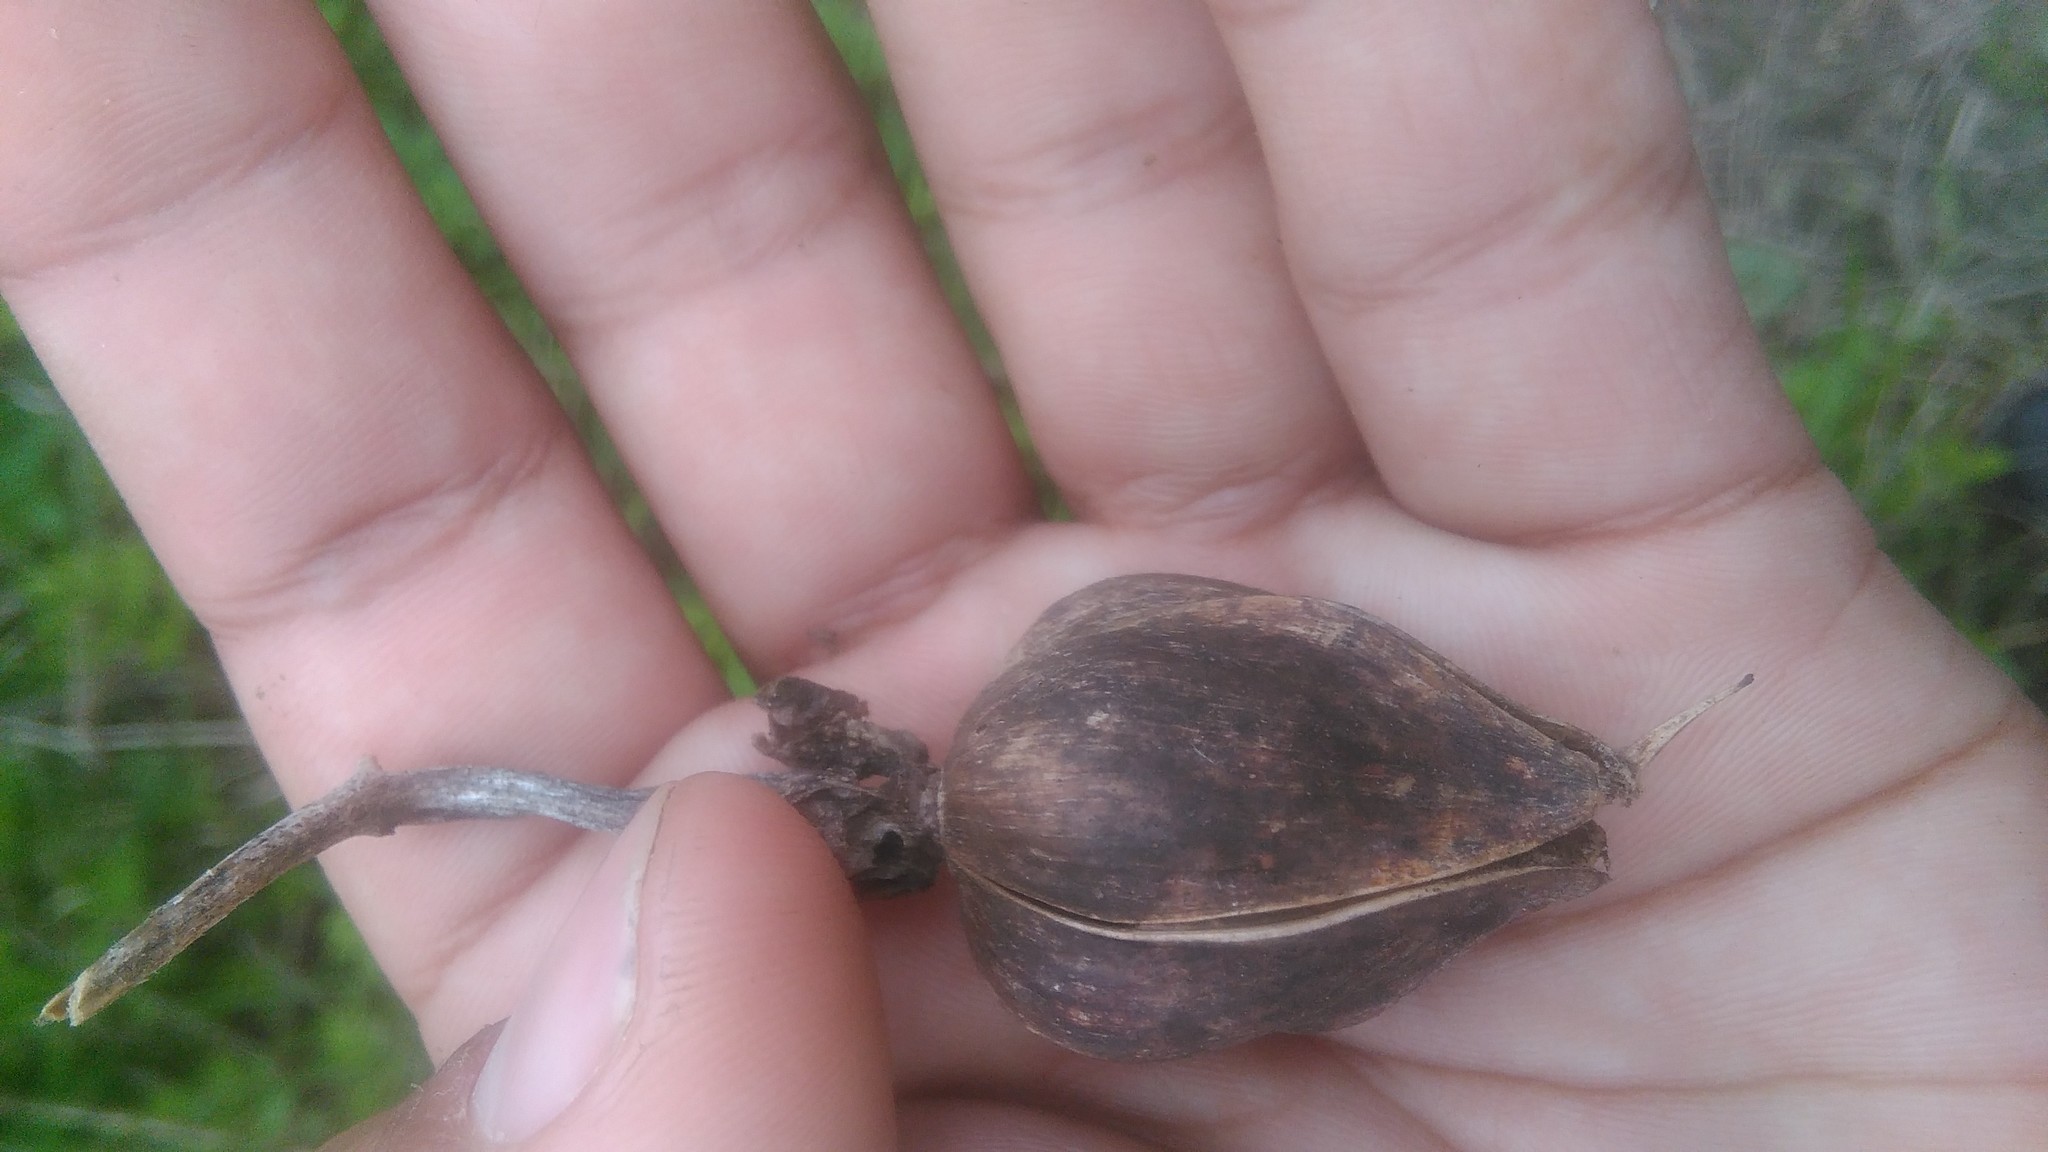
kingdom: Plantae
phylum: Tracheophyta
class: Magnoliopsida
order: Solanales
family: Convolvulaceae
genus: Ipomoea
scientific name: Ipomoea alba
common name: Moonflower
